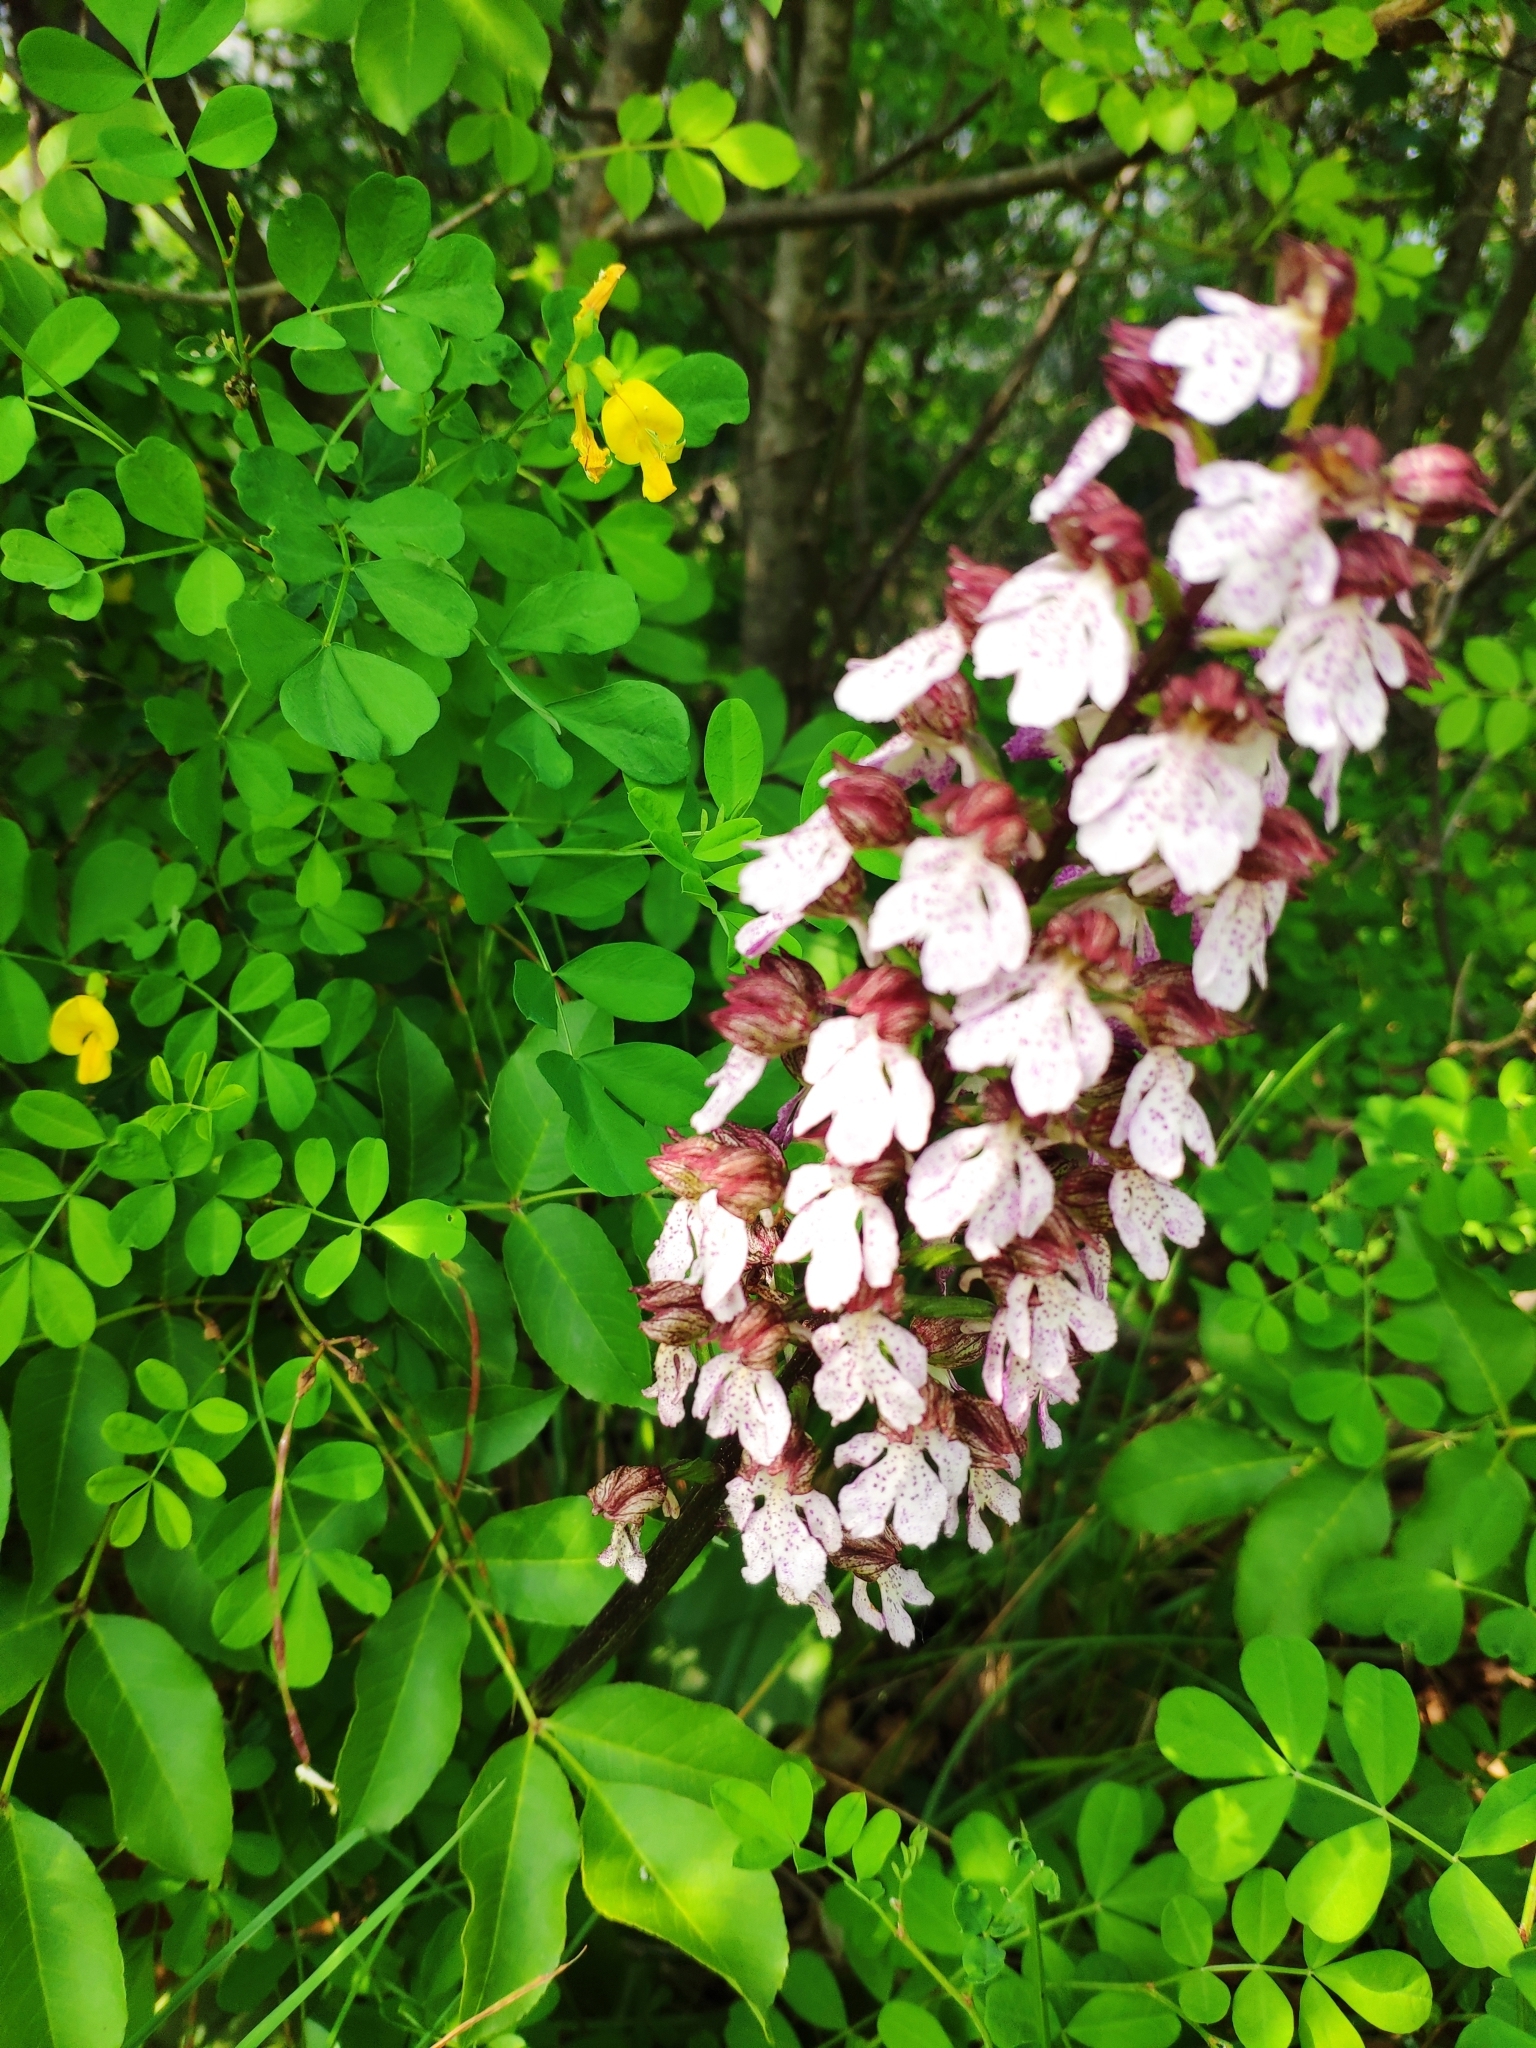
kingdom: Plantae
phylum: Tracheophyta
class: Liliopsida
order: Asparagales
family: Orchidaceae
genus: Orchis
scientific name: Orchis purpurea
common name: Lady orchid
